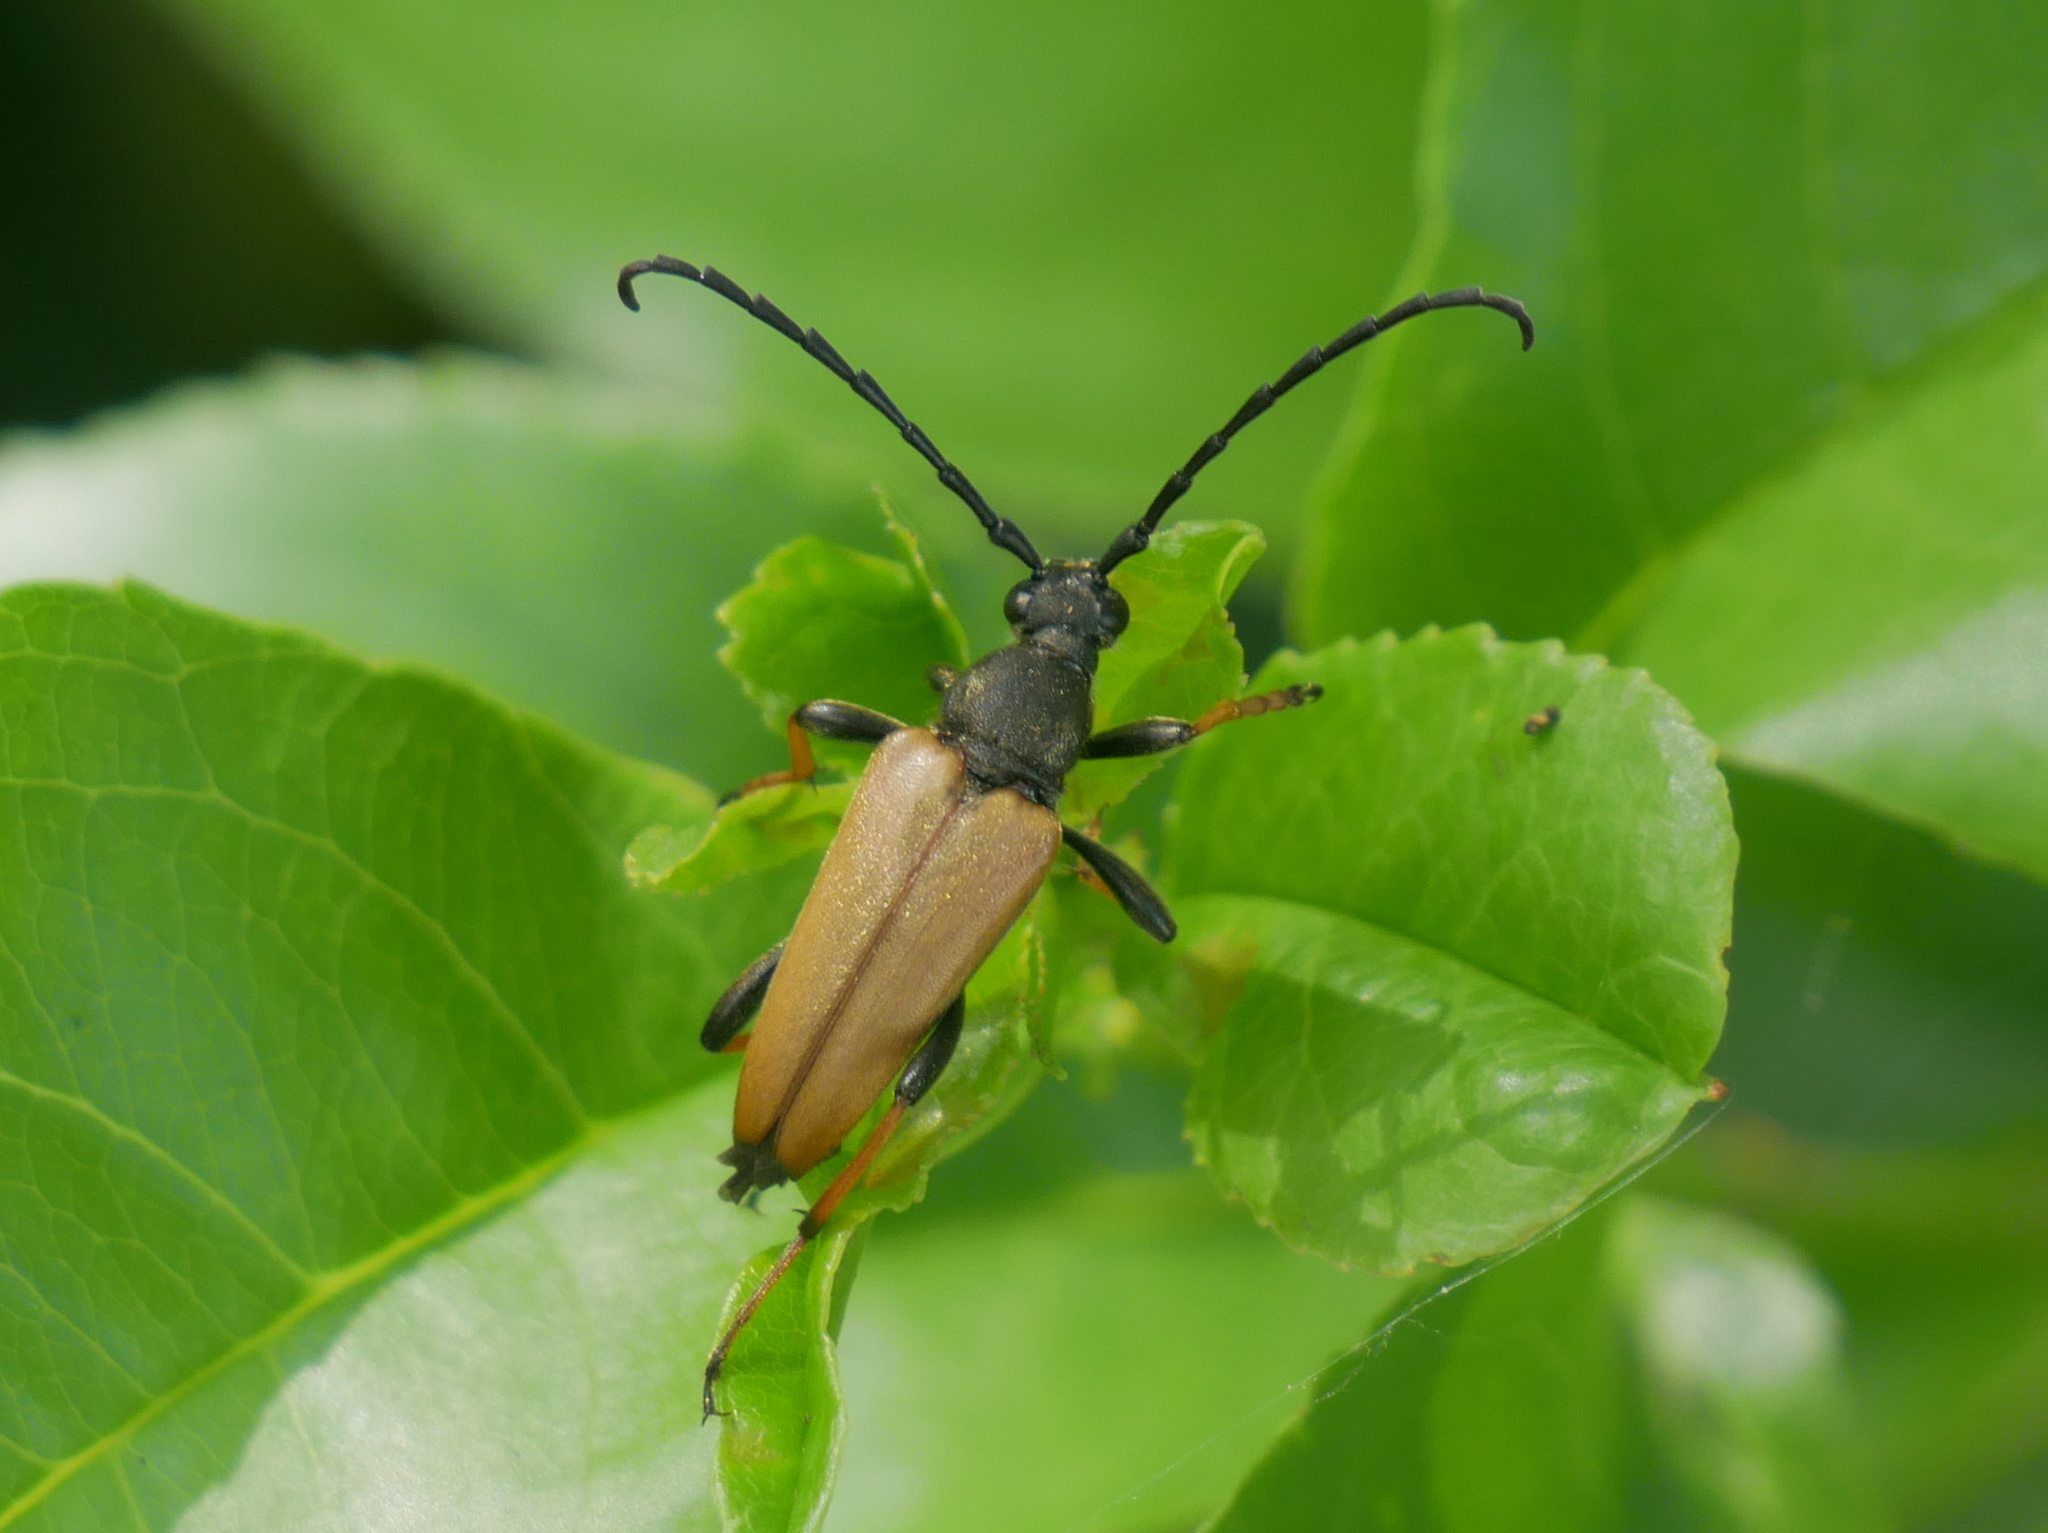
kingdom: Animalia
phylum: Arthropoda
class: Insecta
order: Coleoptera
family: Cerambycidae
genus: Stictoleptura
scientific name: Stictoleptura rubra
